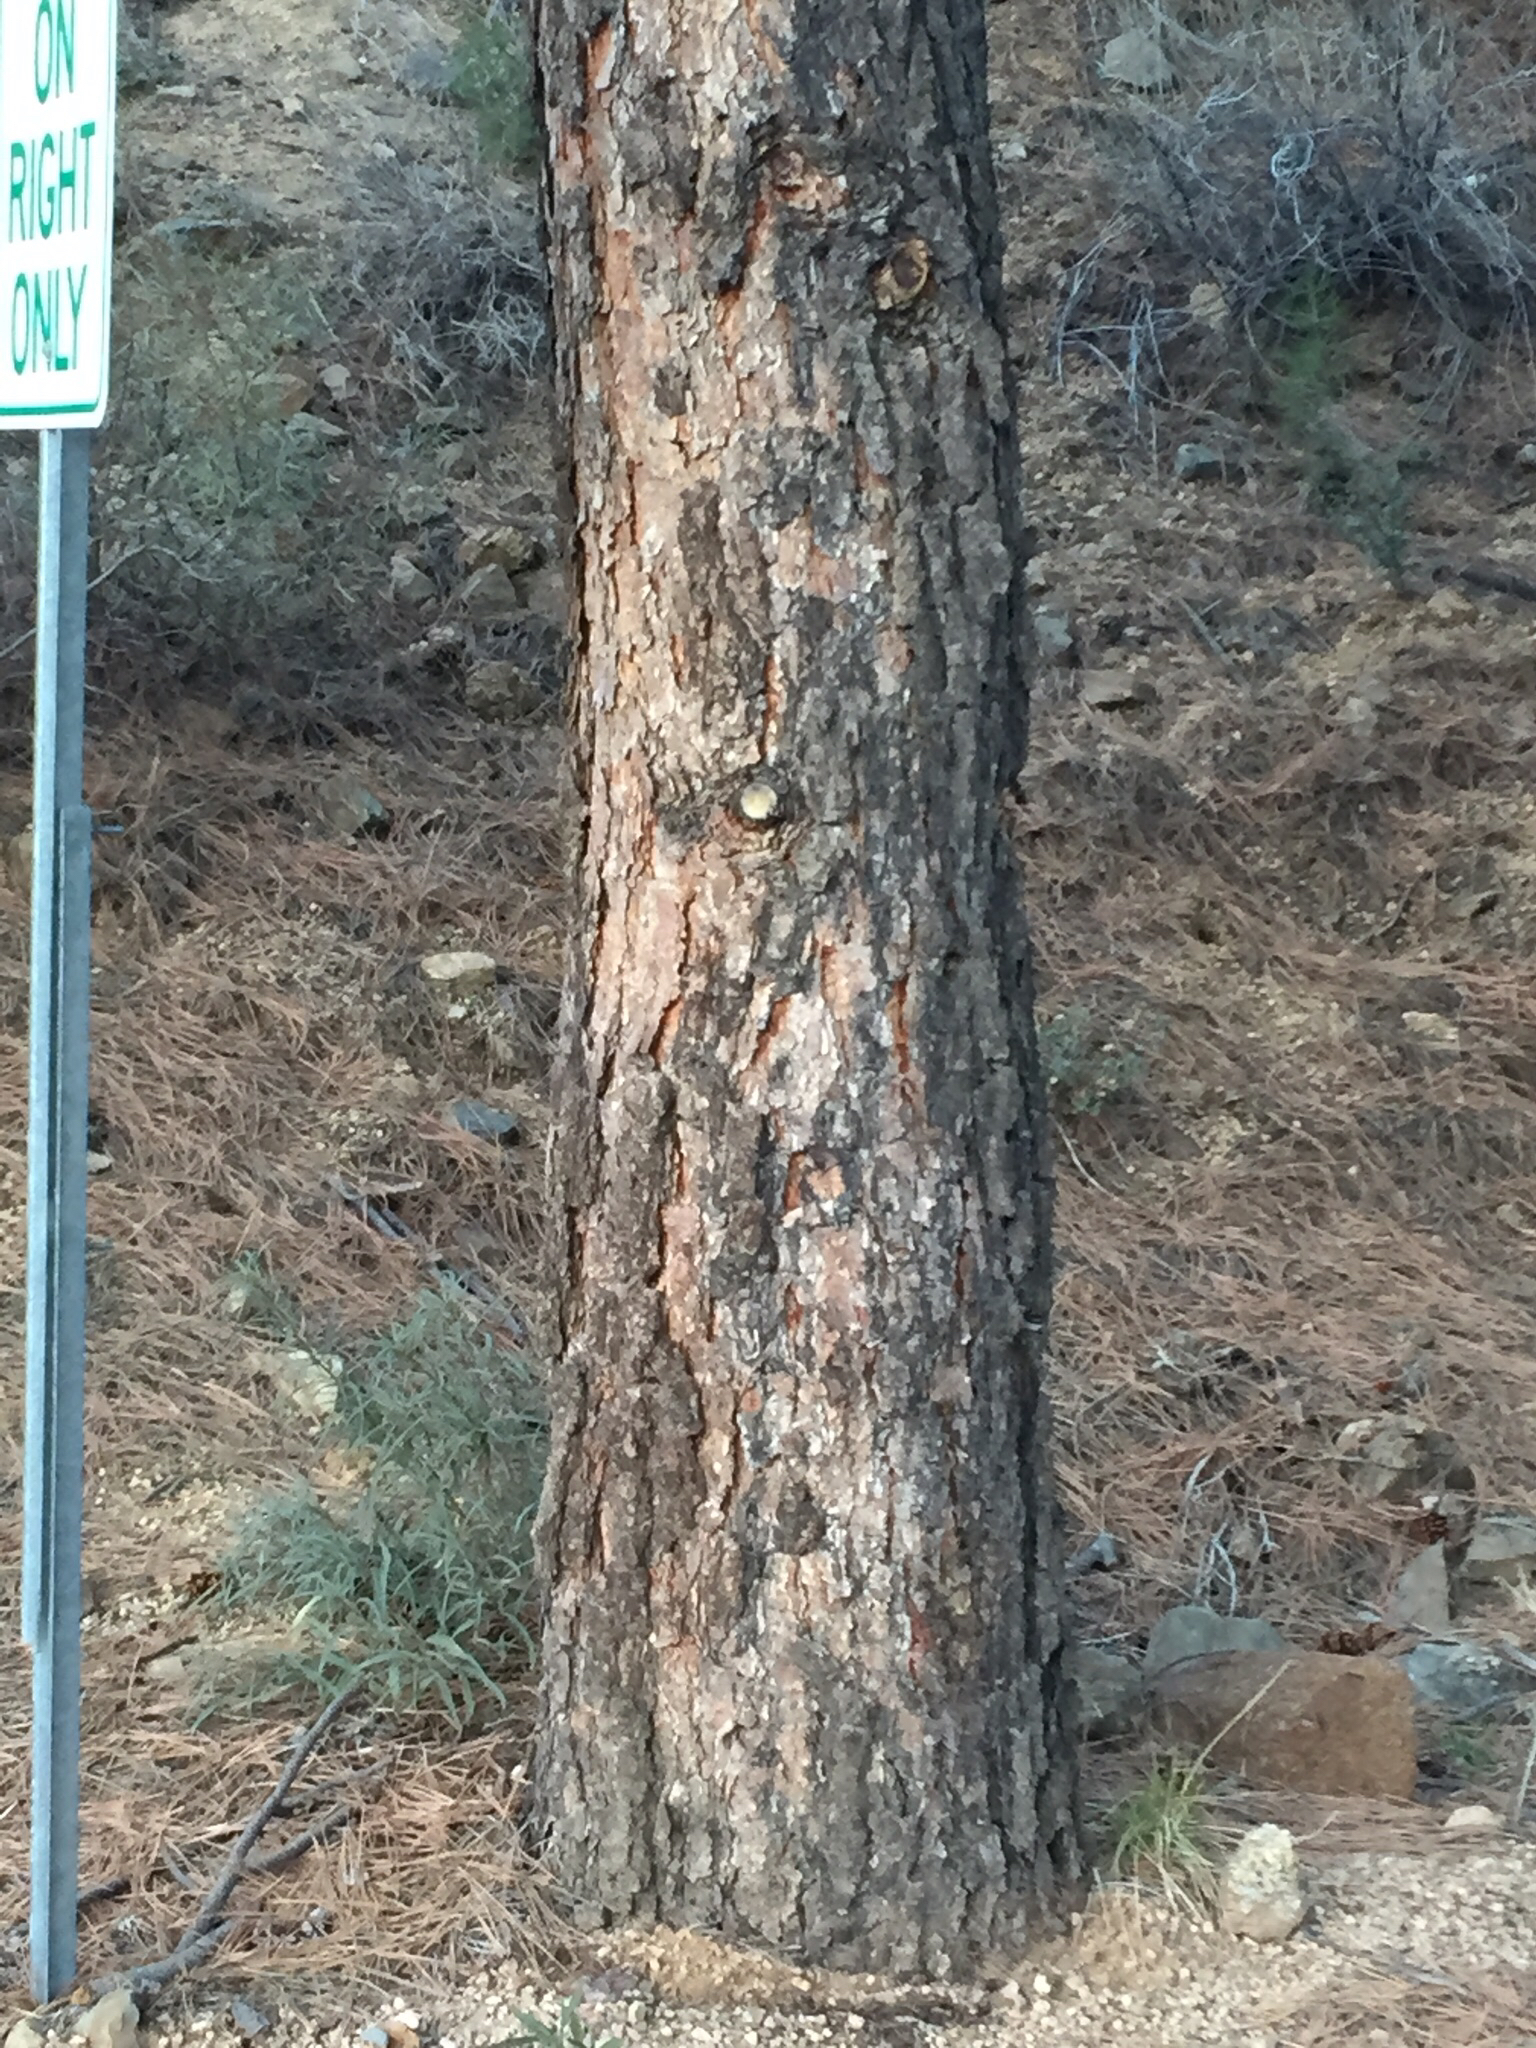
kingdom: Plantae
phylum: Tracheophyta
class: Pinopsida
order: Pinales
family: Pinaceae
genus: Pinus
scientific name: Pinus ponderosa
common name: Western yellow-pine
